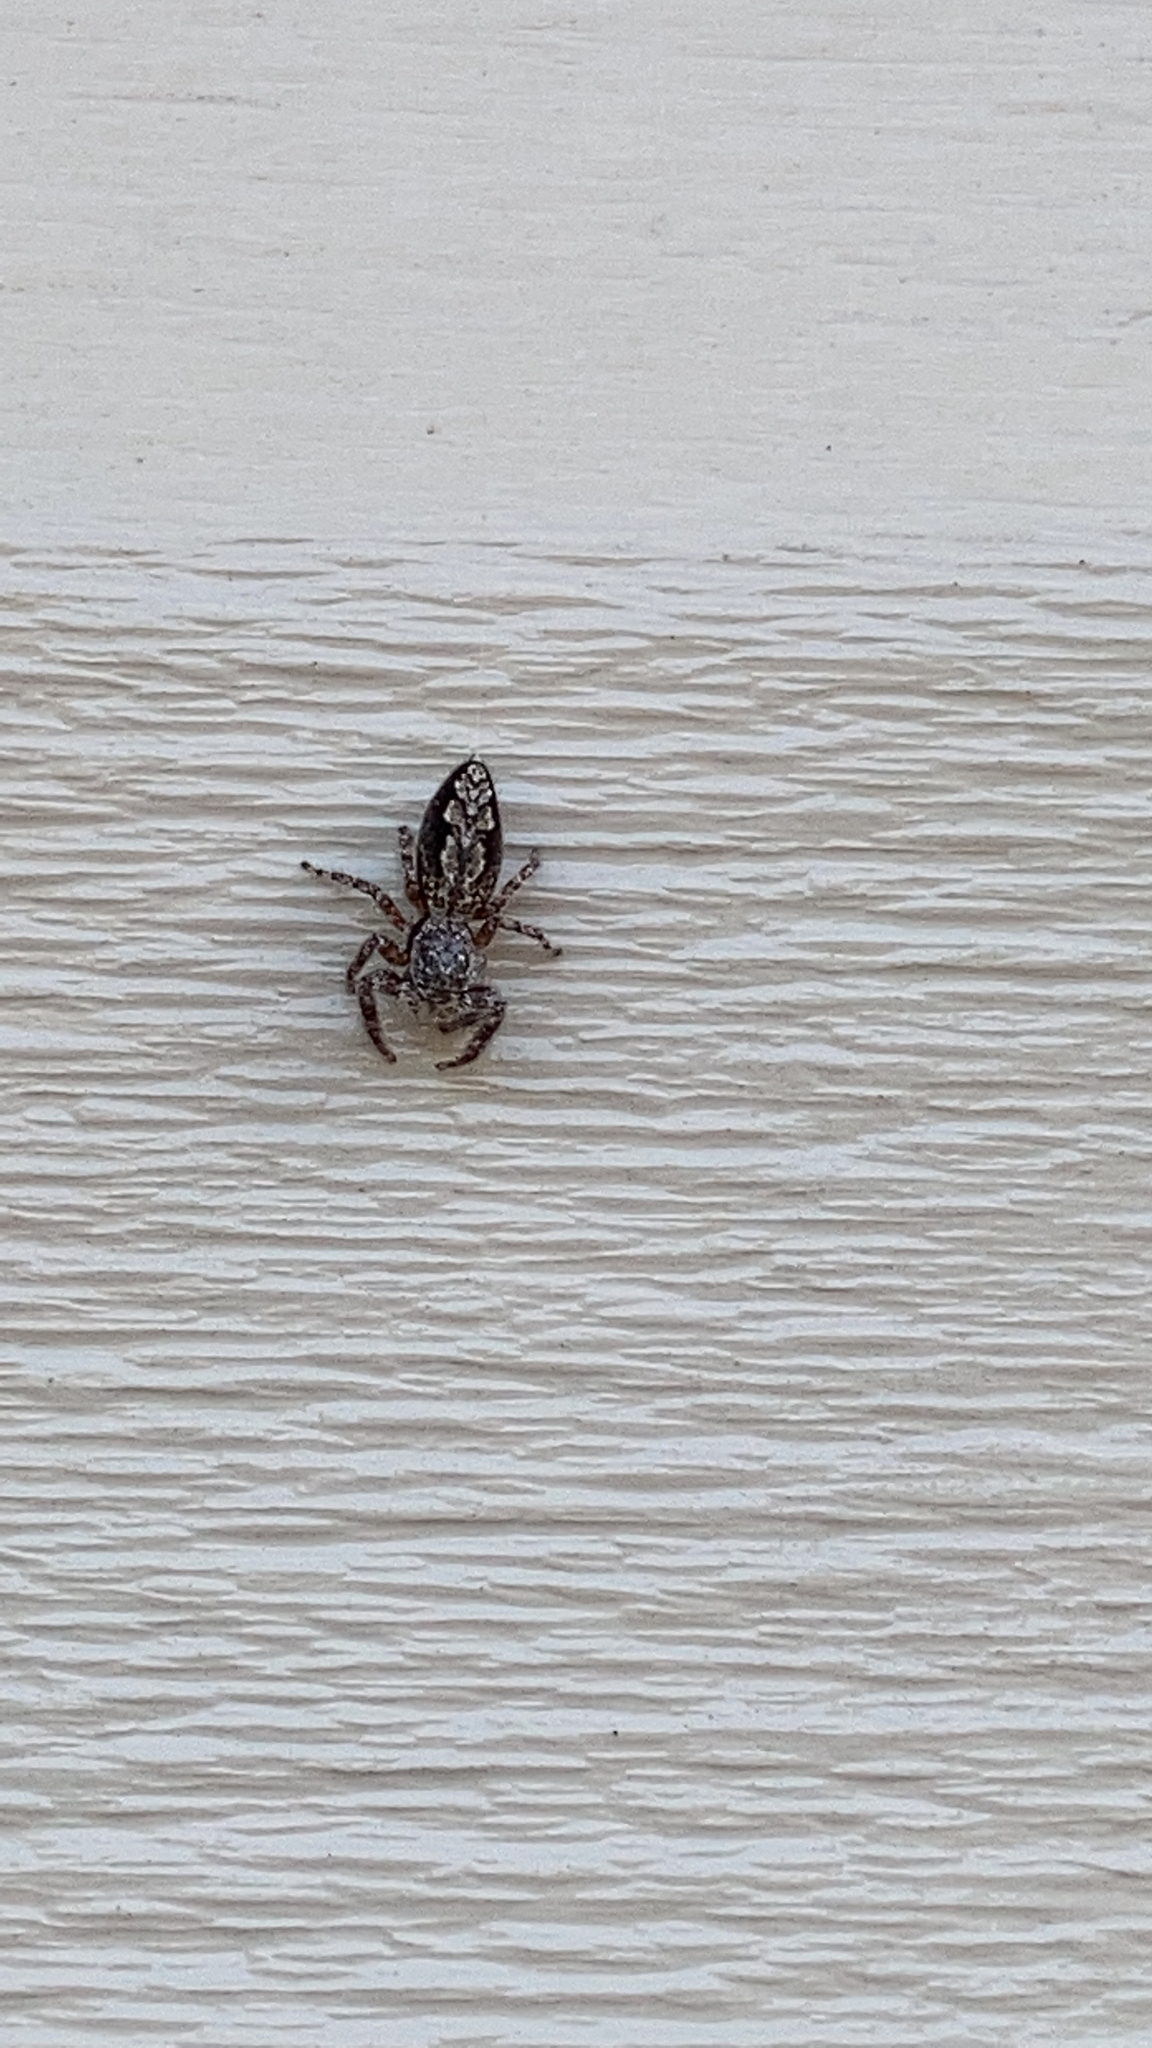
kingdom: Animalia
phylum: Arthropoda
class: Arachnida
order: Araneae
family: Salticidae
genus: Platycryptus
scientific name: Platycryptus undatus
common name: Tan jumping spider
